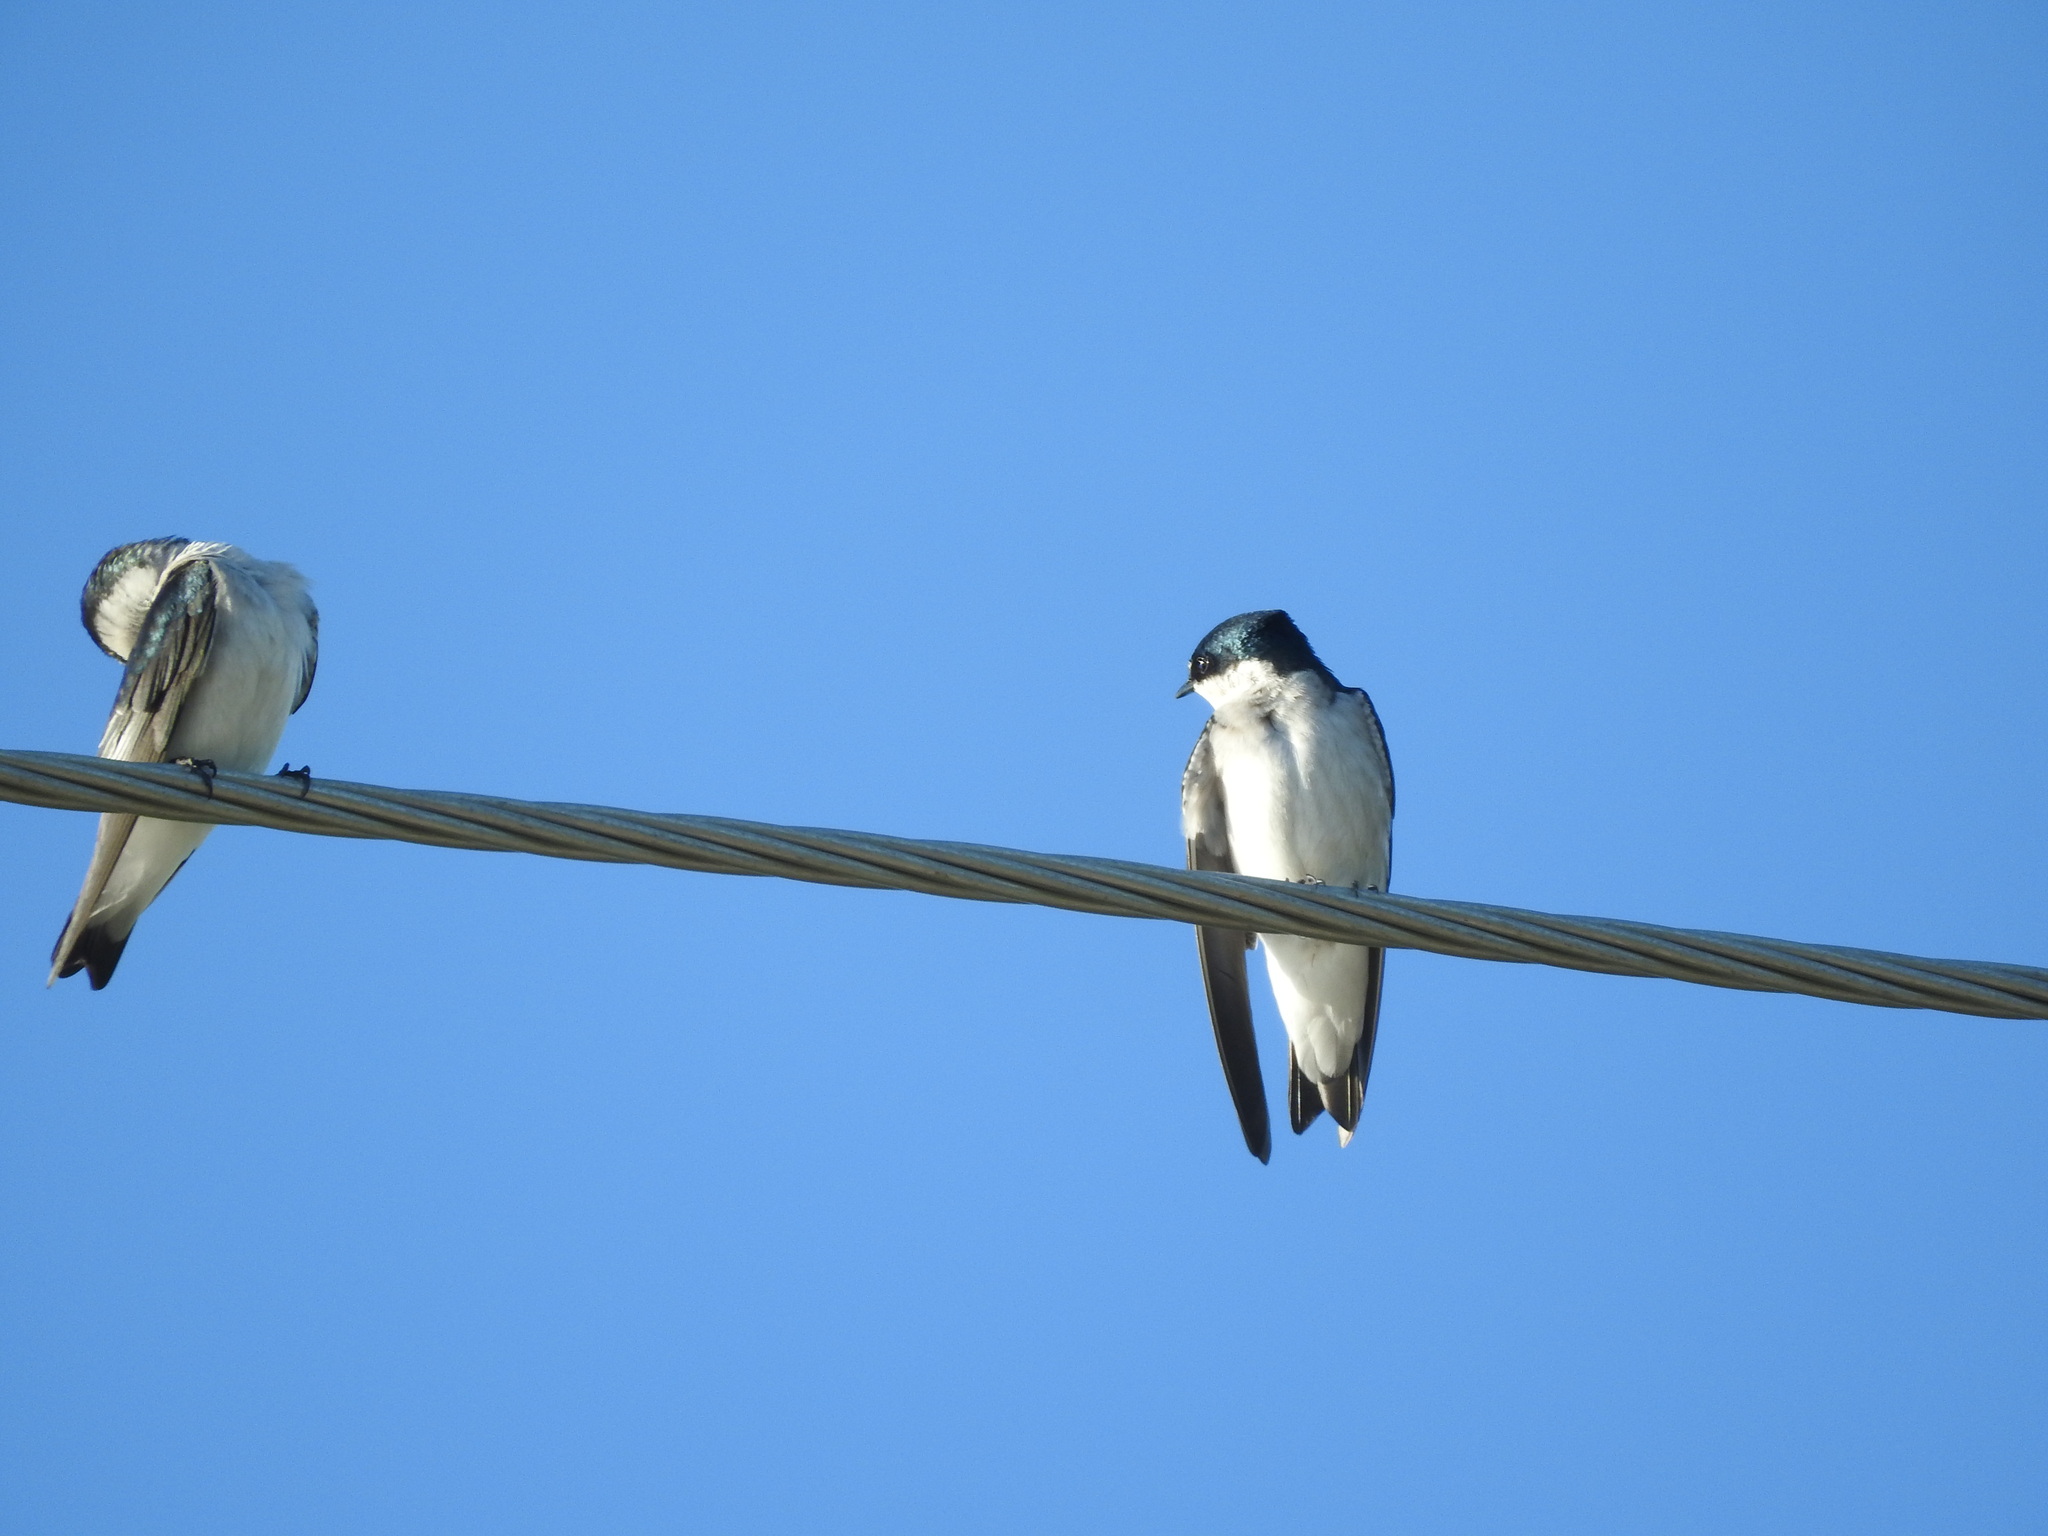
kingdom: Animalia
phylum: Chordata
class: Aves
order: Passeriformes
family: Hirundinidae
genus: Tachycineta
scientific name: Tachycineta albilinea
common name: Mangrove swallow
